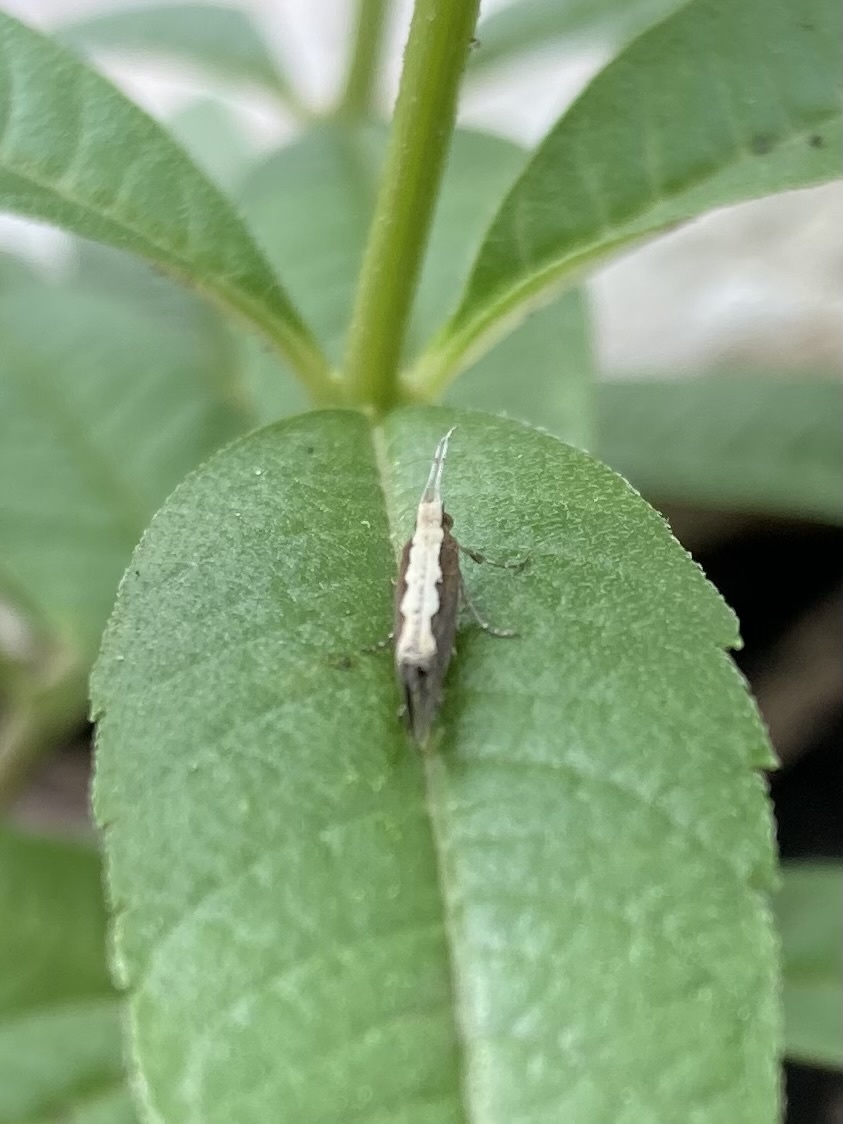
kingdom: Animalia
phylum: Arthropoda
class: Insecta
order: Lepidoptera
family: Plutellidae
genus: Plutella
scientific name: Plutella xylostella
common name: Diamond-back moth
